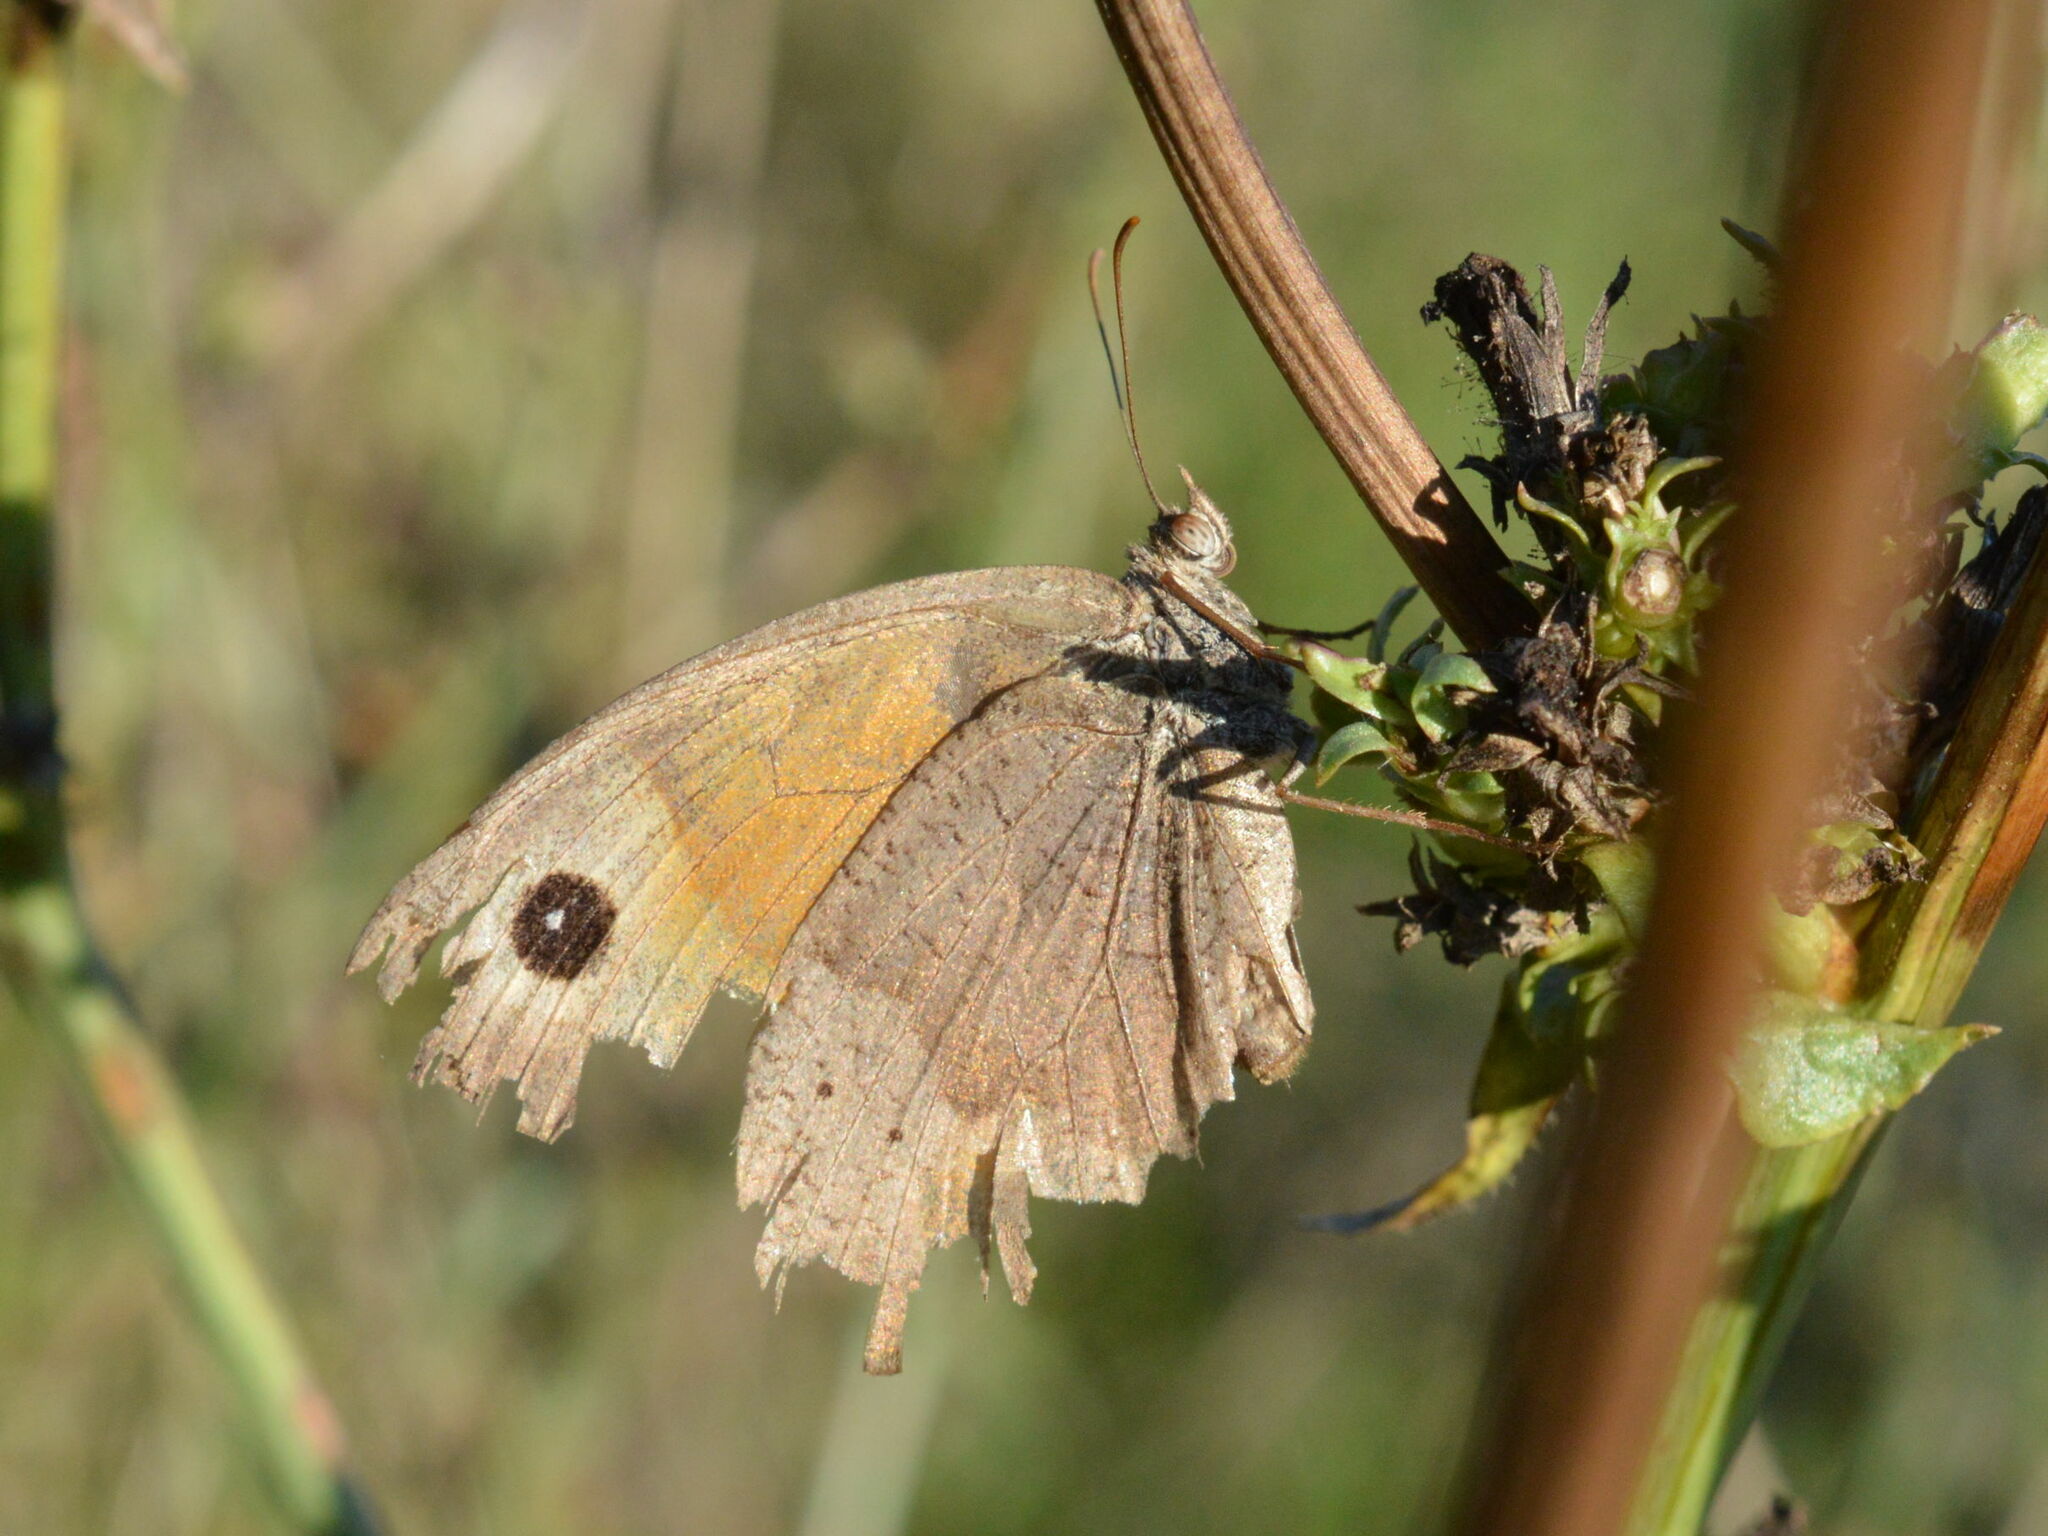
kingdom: Animalia
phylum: Arthropoda
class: Insecta
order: Lepidoptera
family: Nymphalidae
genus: Maniola
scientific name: Maniola jurtina
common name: Meadow brown
